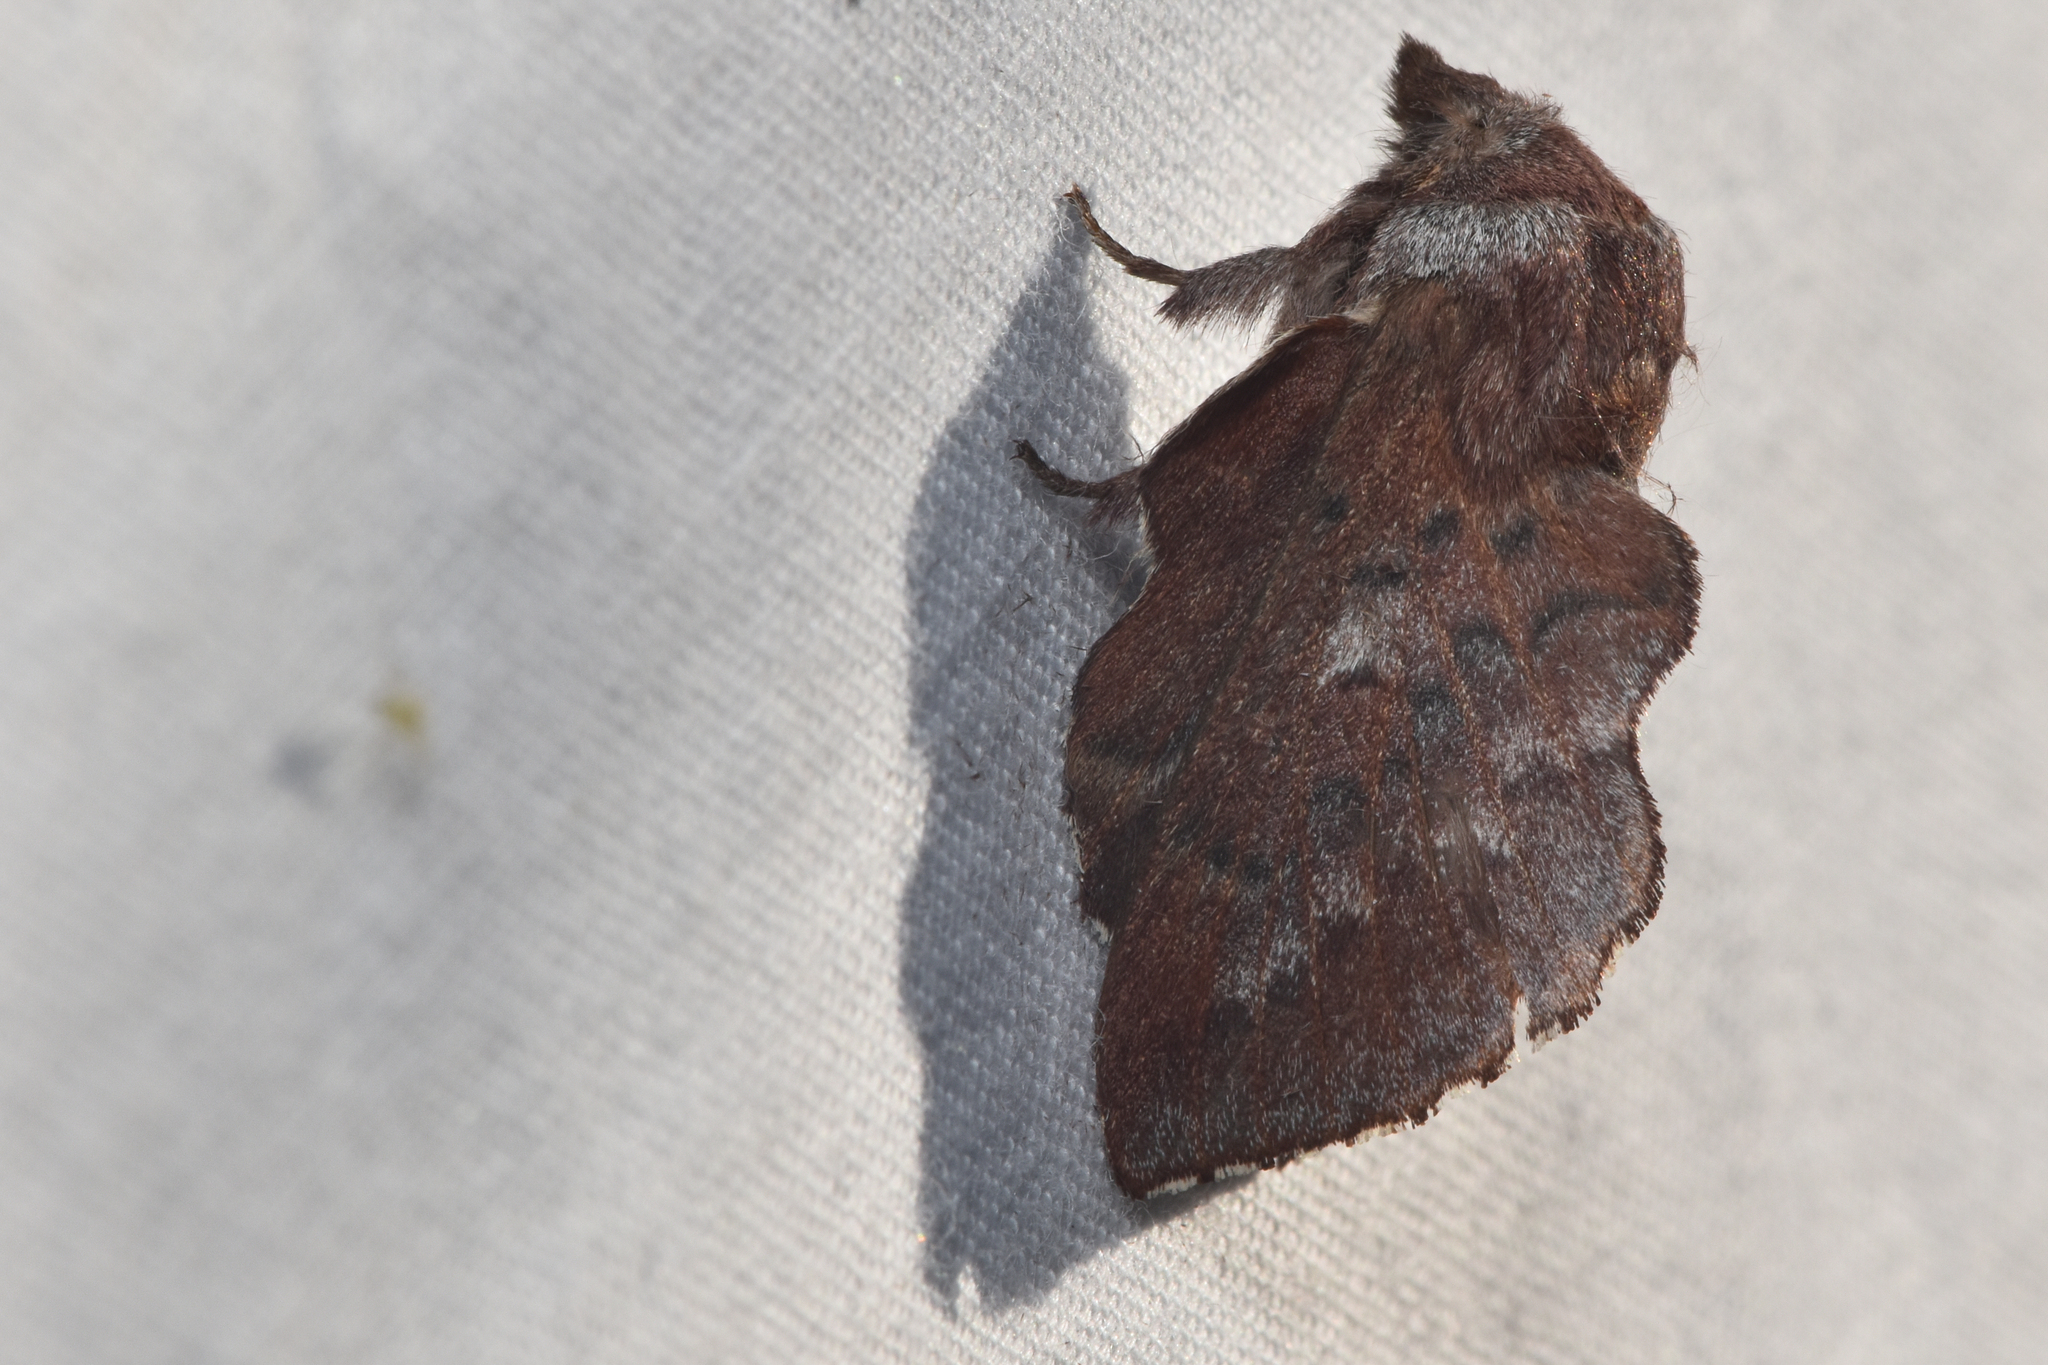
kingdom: Animalia
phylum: Arthropoda
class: Insecta
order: Lepidoptera
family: Lasiocampidae
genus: Phyllodesma
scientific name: Phyllodesma americana
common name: American lappet moth
